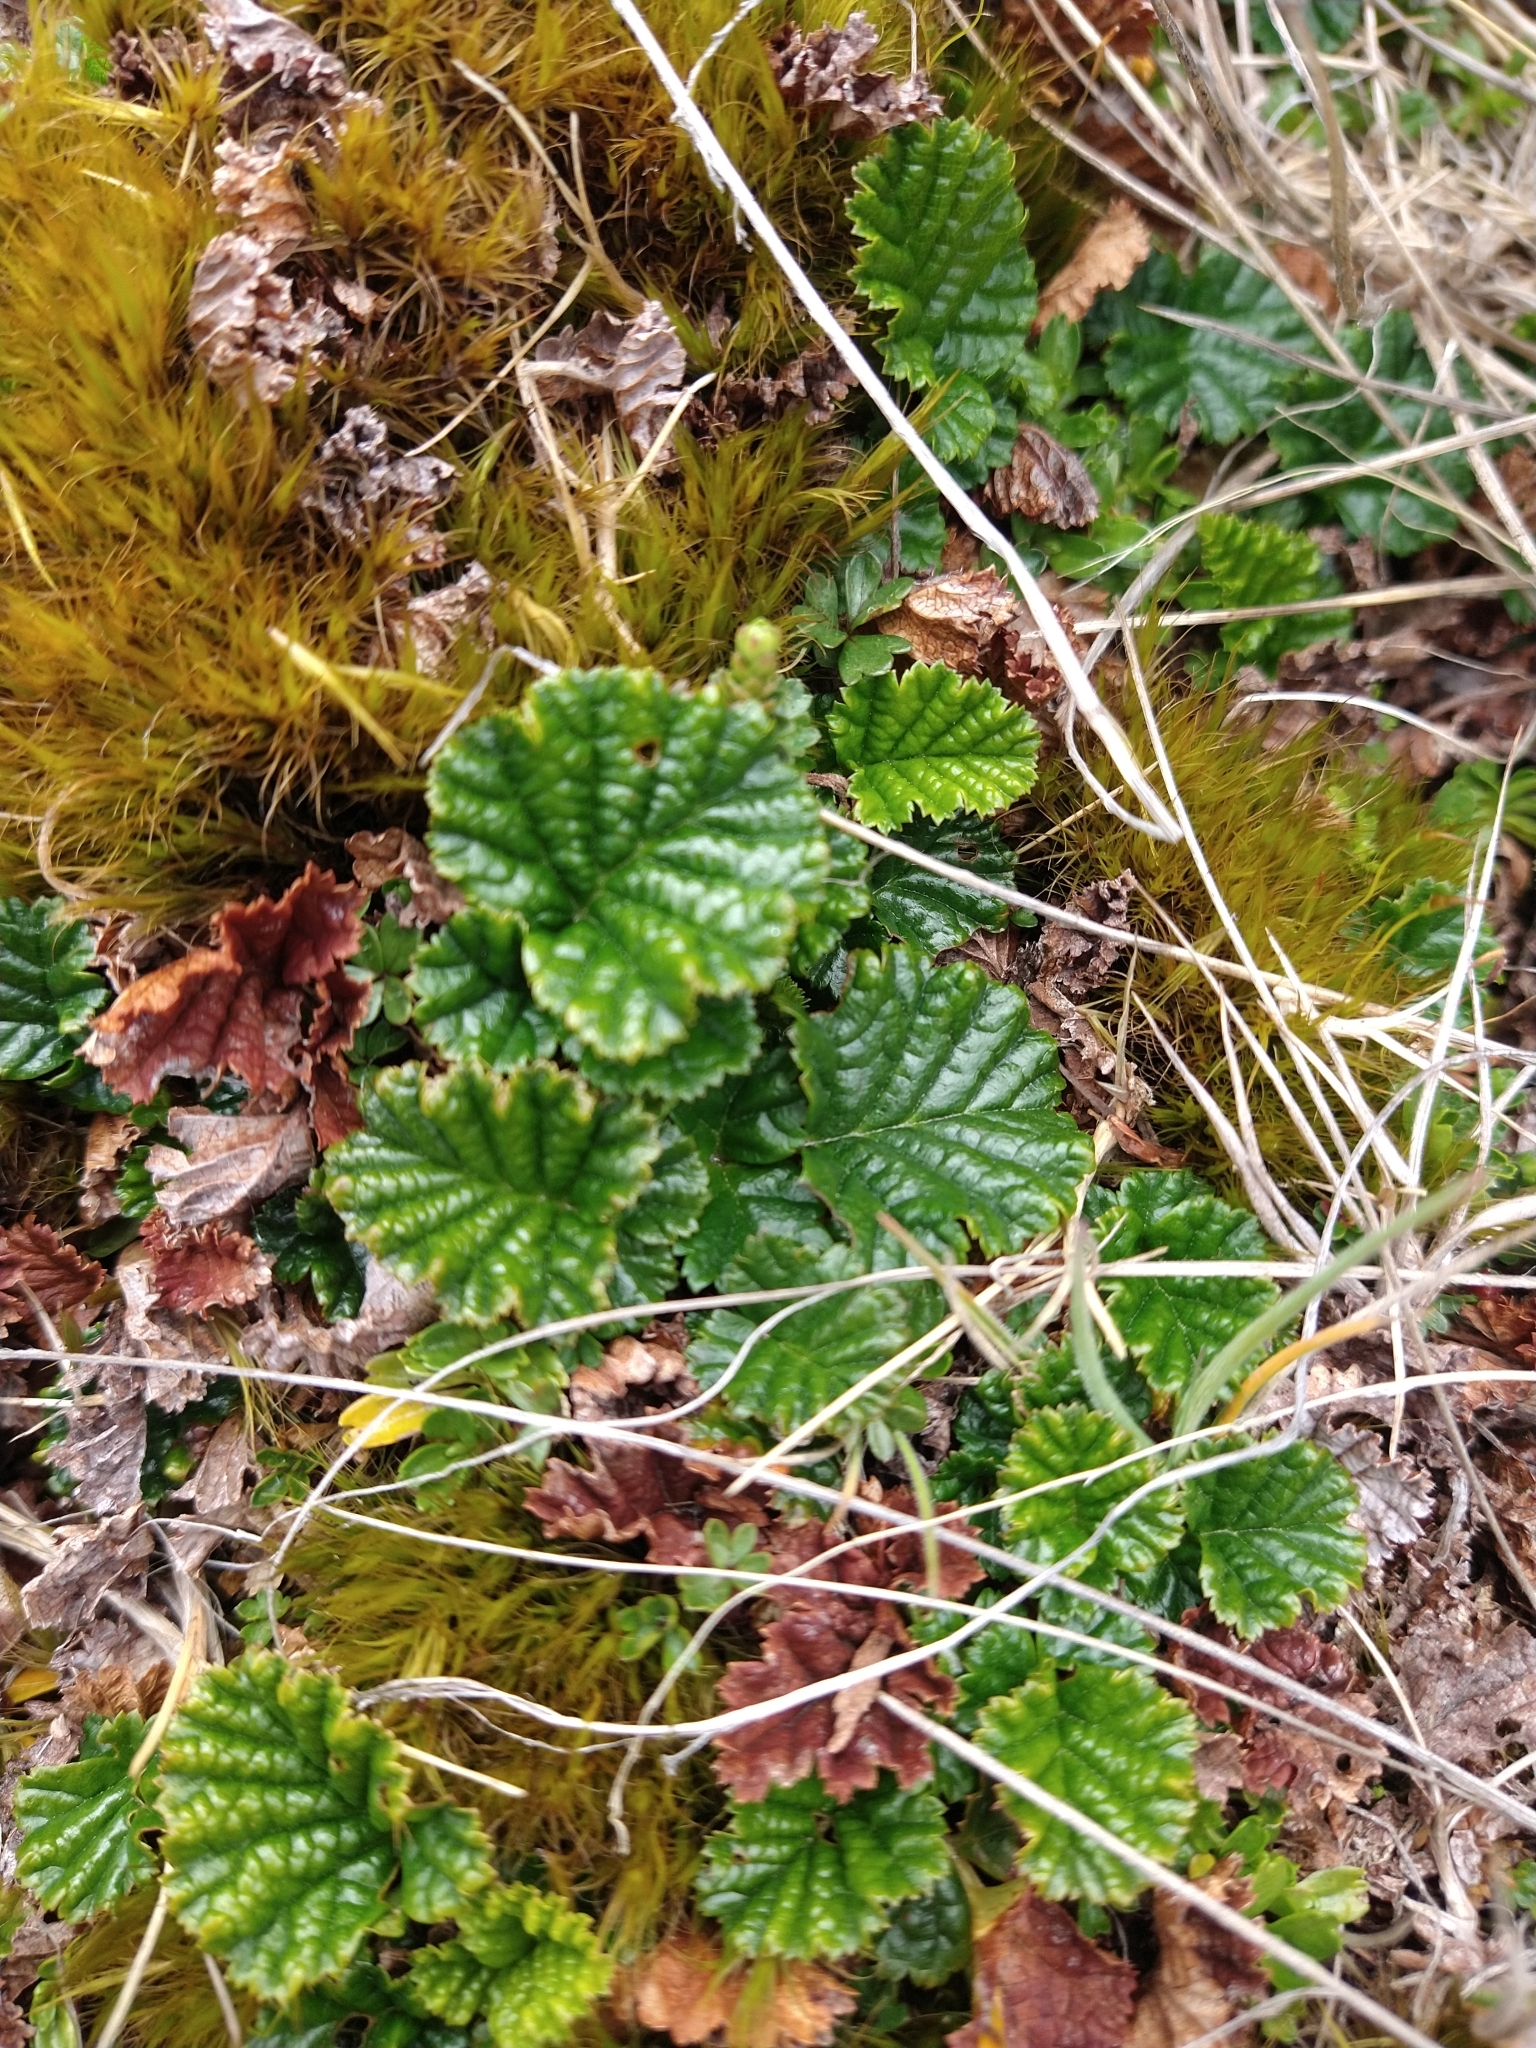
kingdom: Plantae
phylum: Tracheophyta
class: Magnoliopsida
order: Rosales
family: Rosaceae
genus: Rubus
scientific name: Rubus geoides
